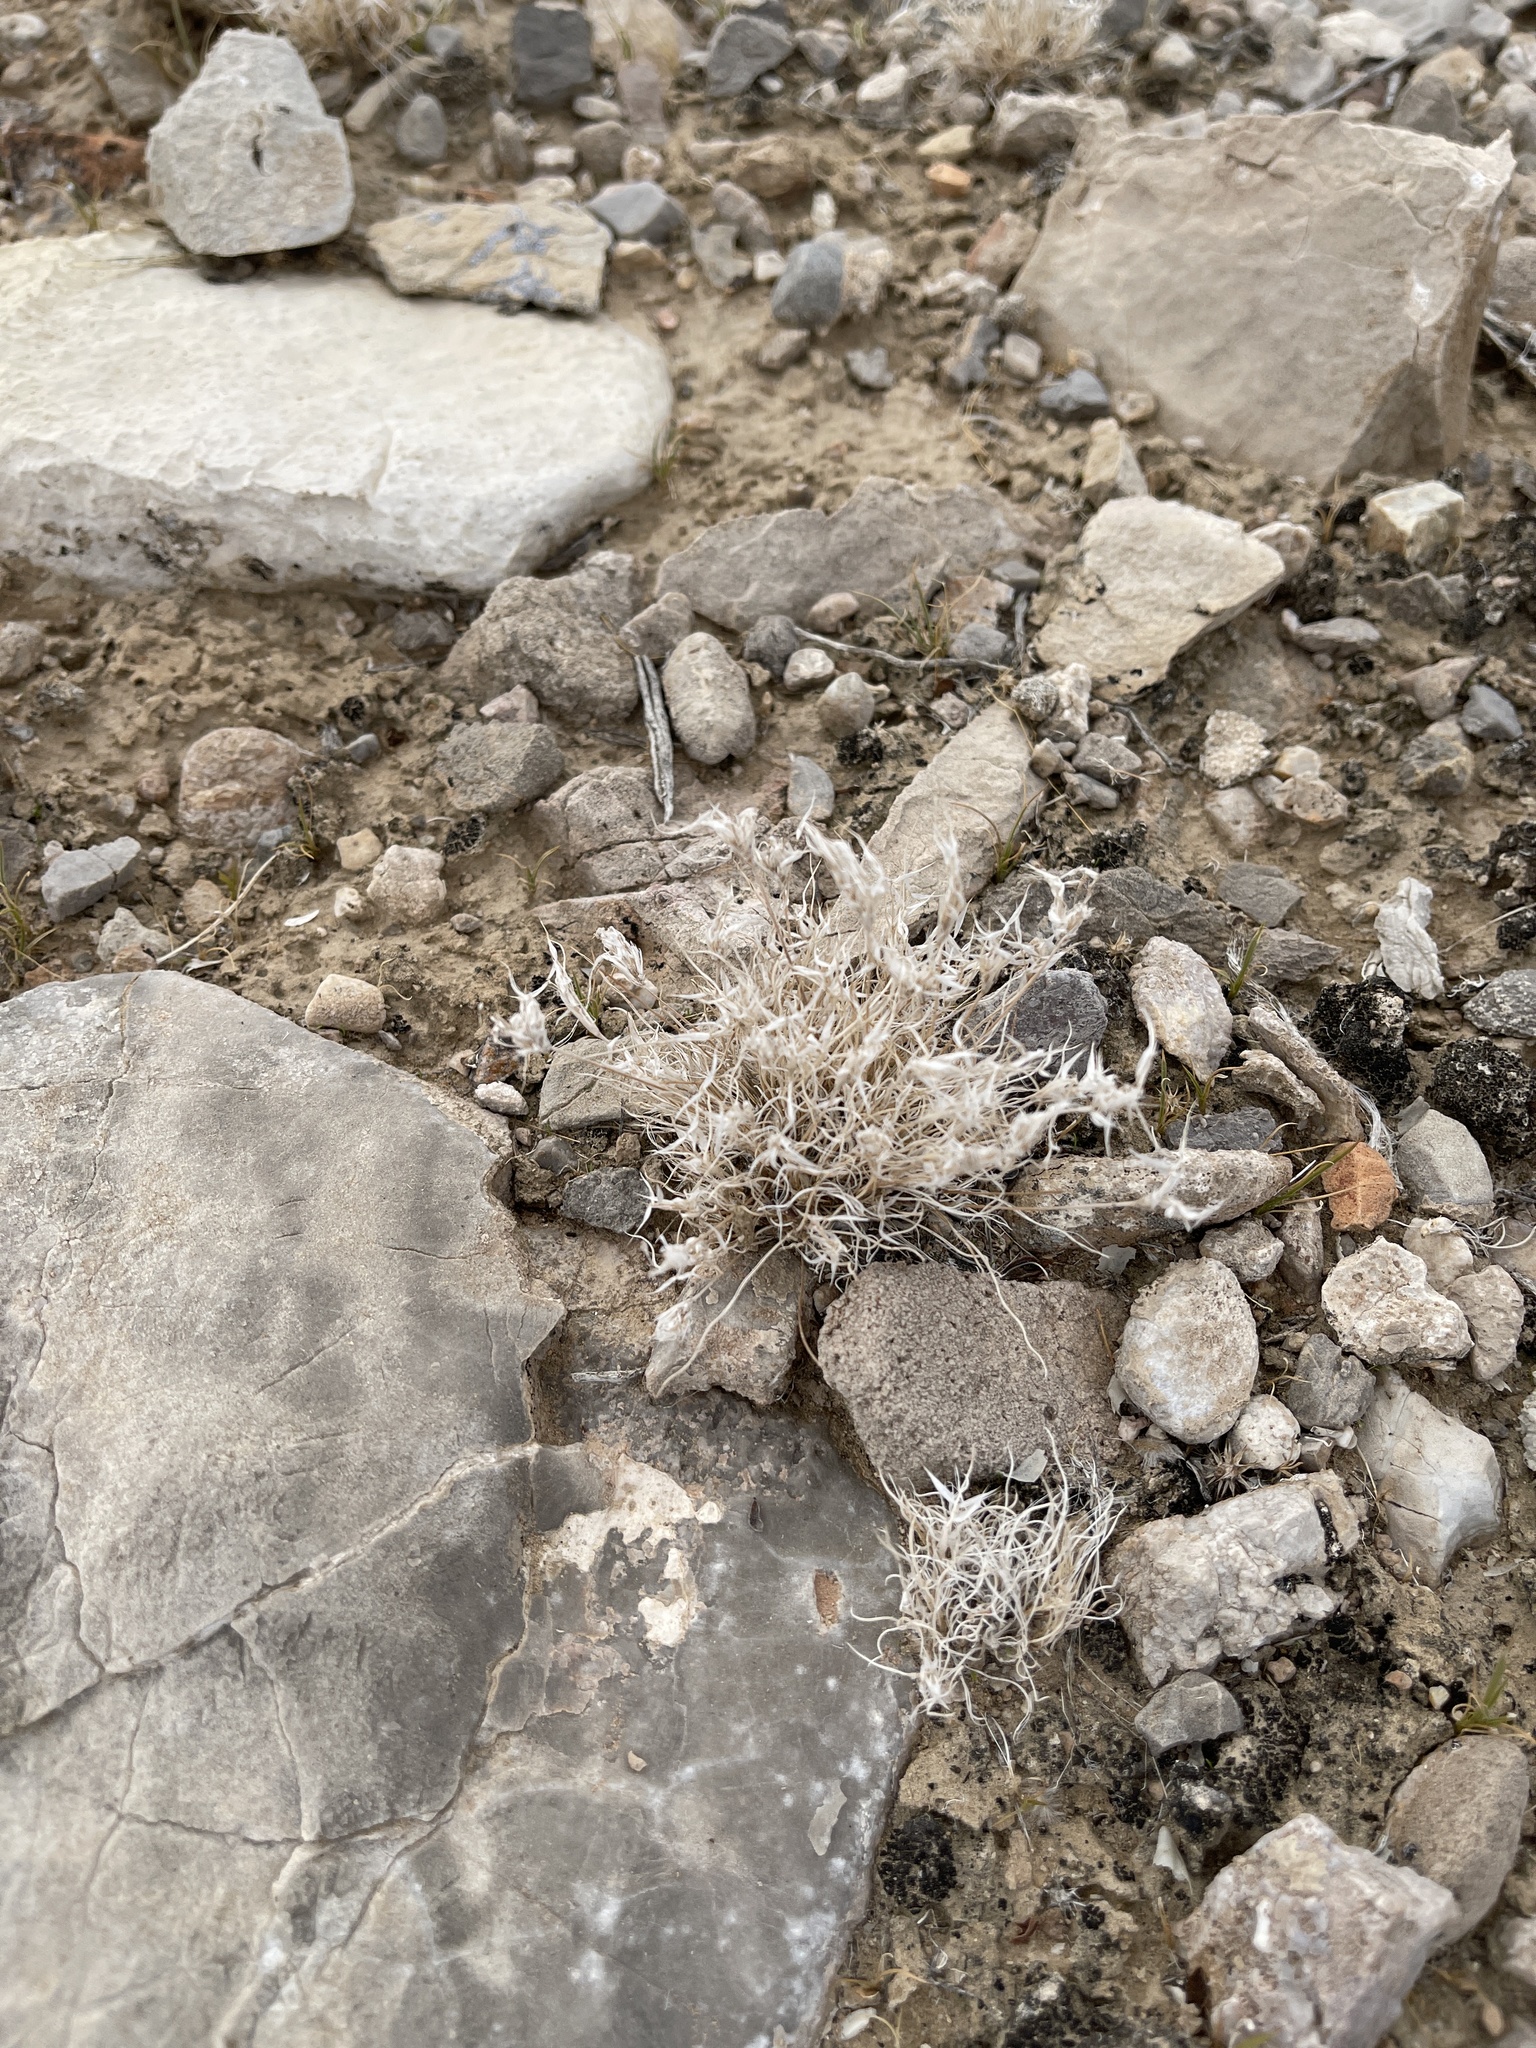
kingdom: Plantae
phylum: Tracheophyta
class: Liliopsida
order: Poales
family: Poaceae
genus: Dasyochloa
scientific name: Dasyochloa pulchella
